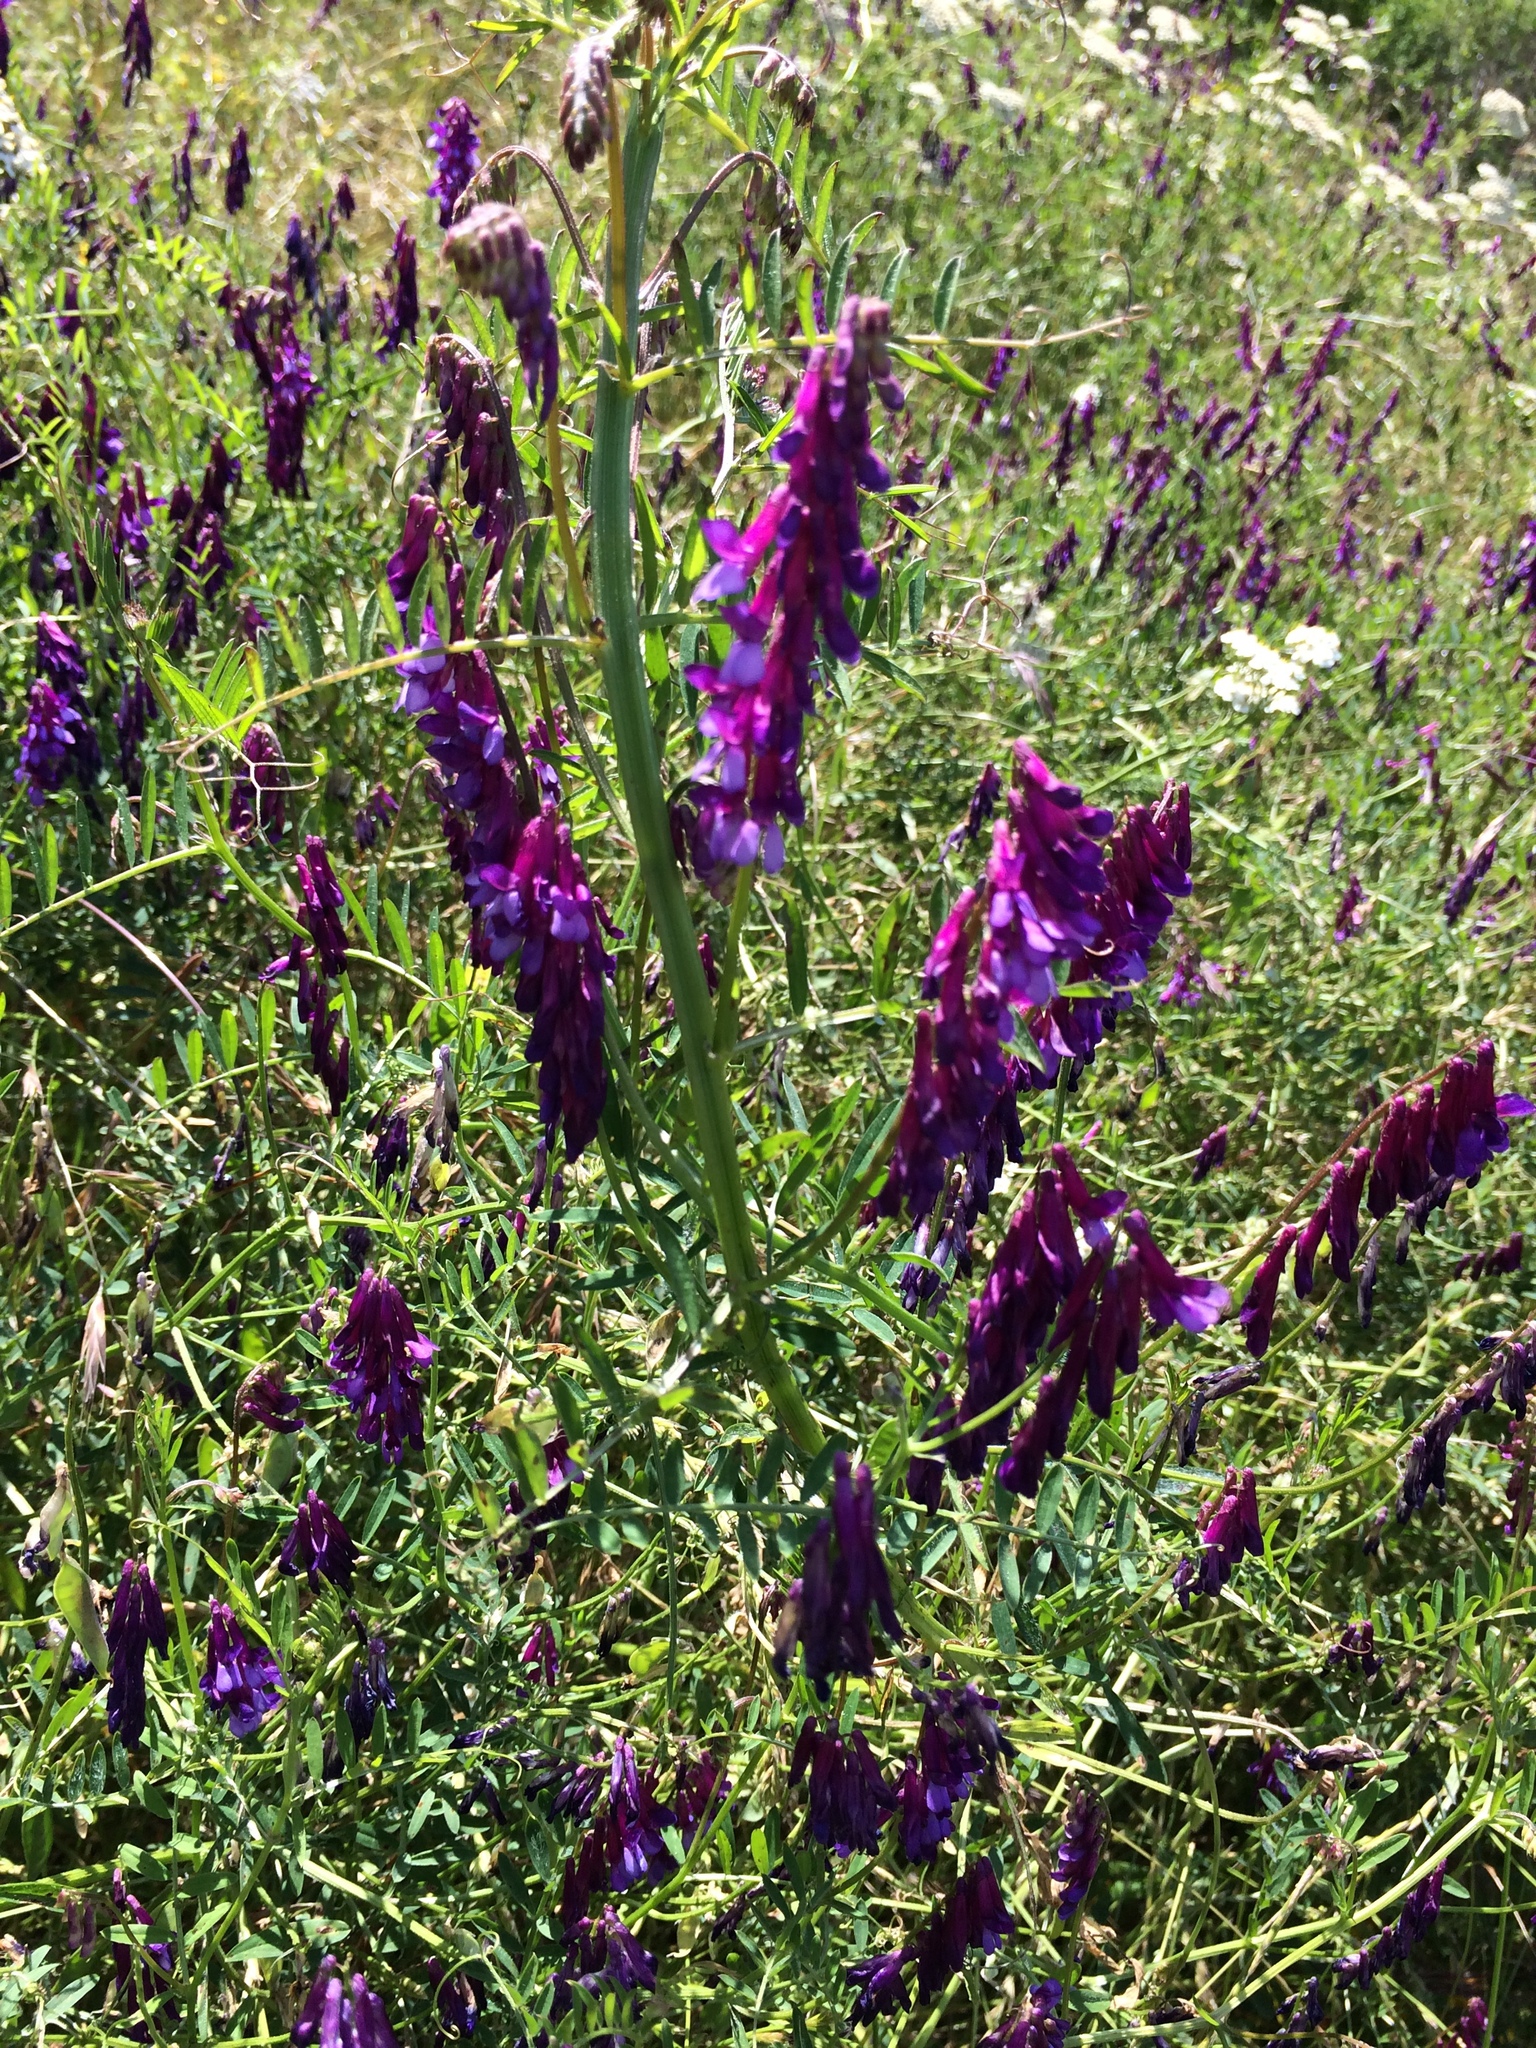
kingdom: Plantae
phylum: Tracheophyta
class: Magnoliopsida
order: Fabales
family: Fabaceae
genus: Vicia
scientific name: Vicia villosa
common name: Fodder vetch
